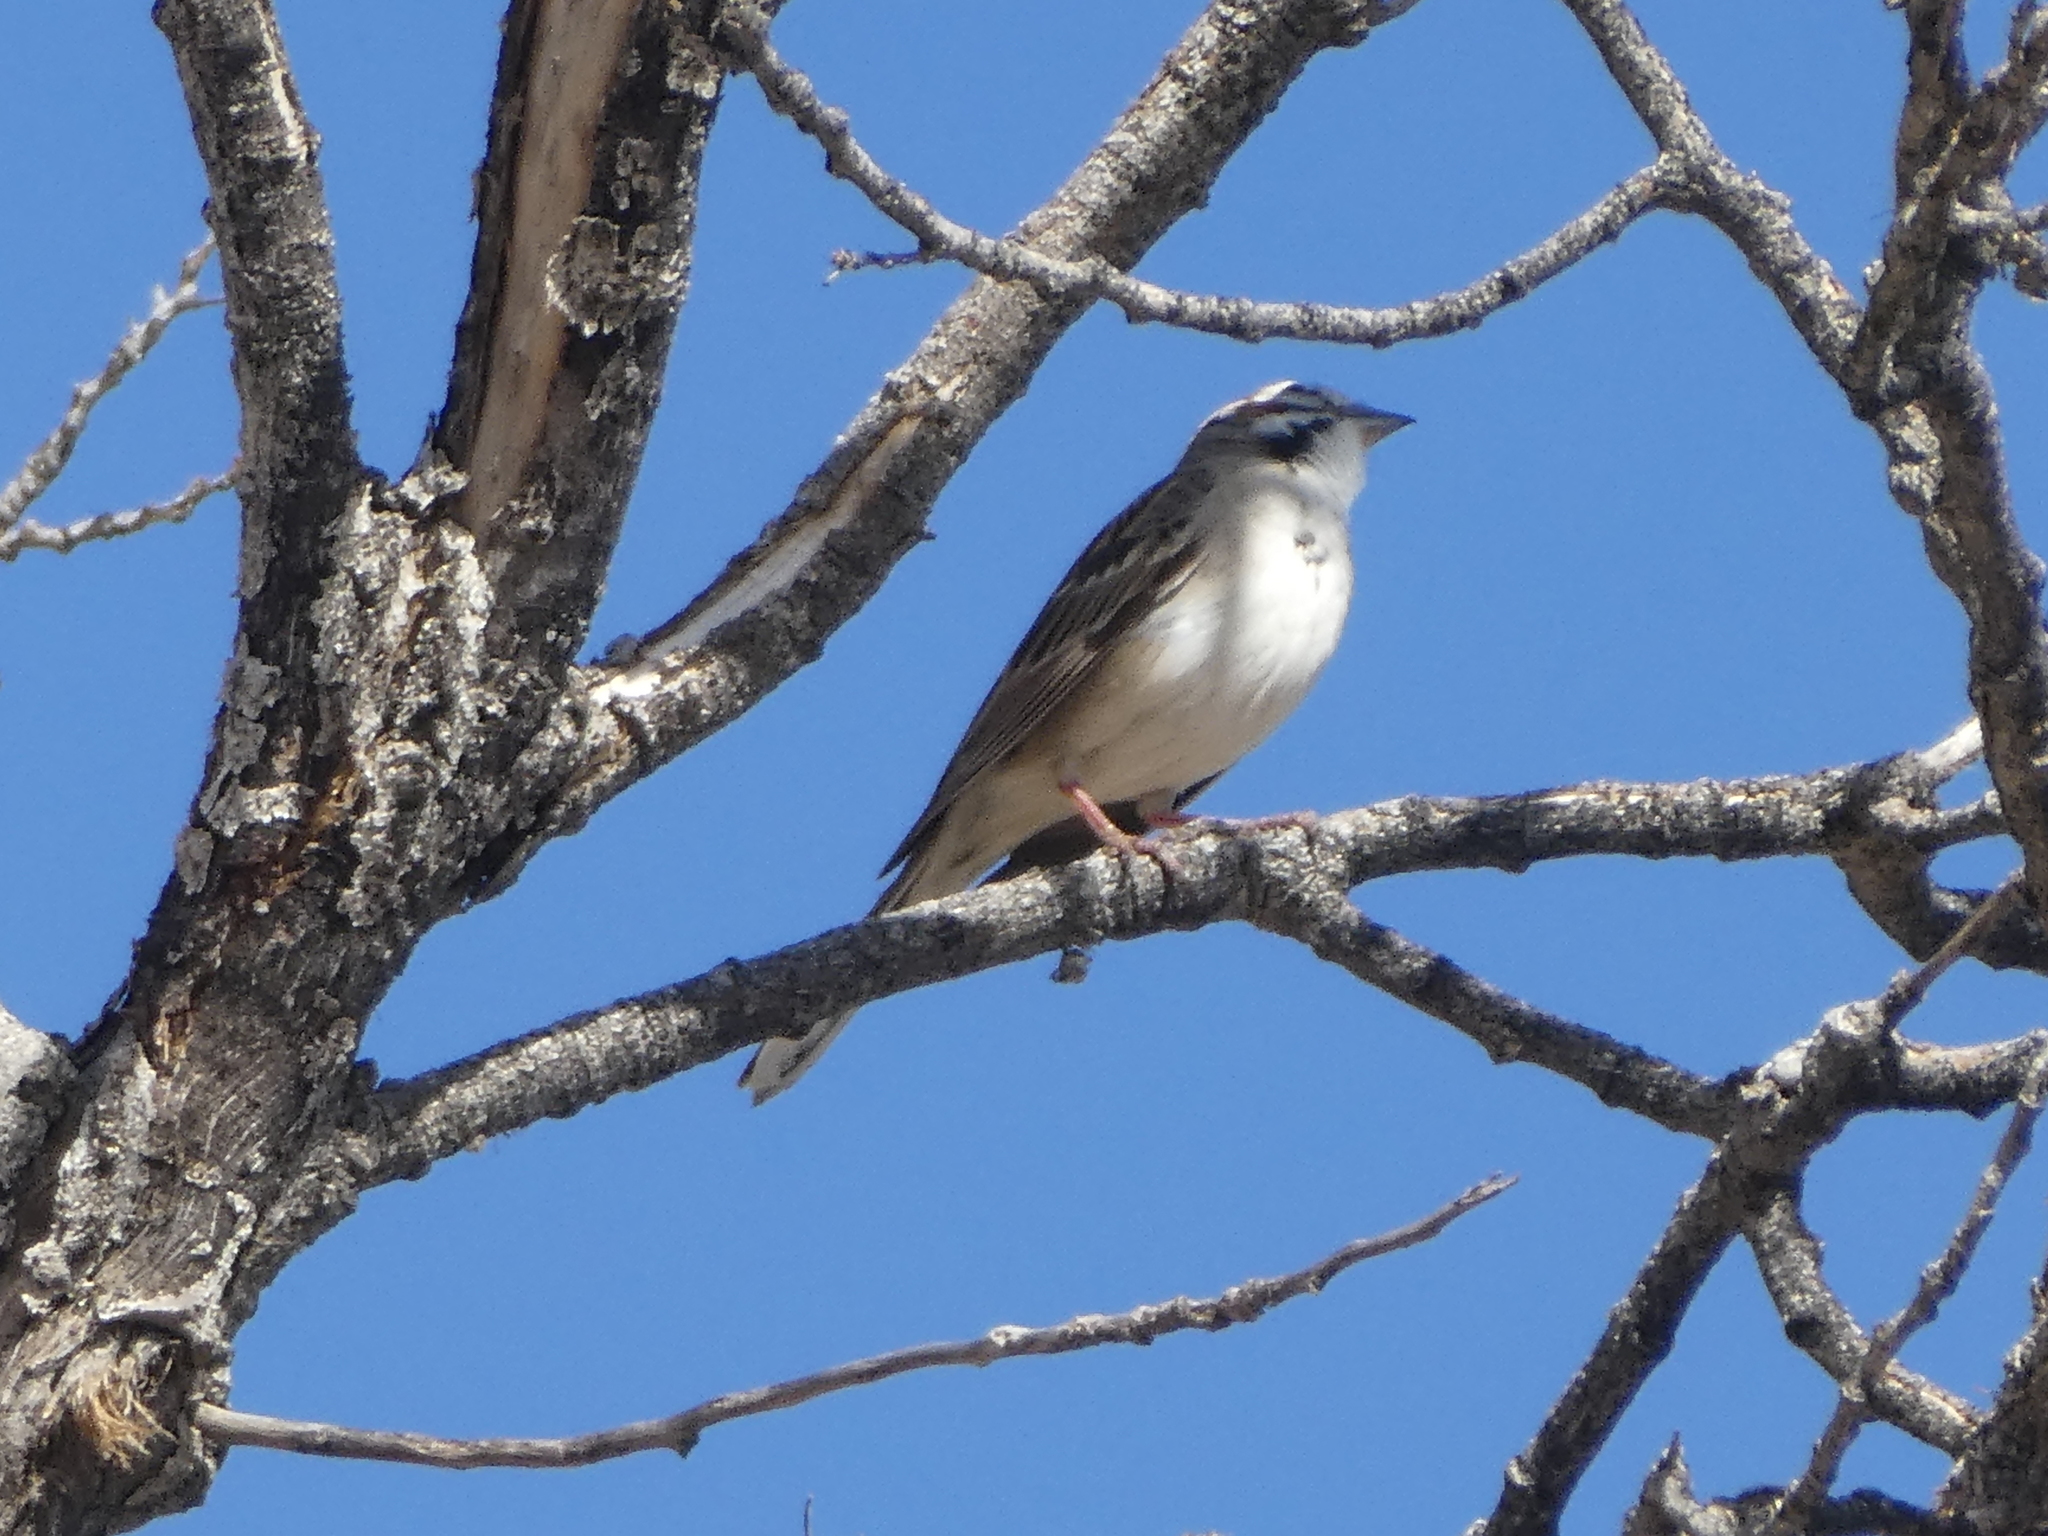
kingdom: Animalia
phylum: Chordata
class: Aves
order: Passeriformes
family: Passerellidae
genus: Chondestes
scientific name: Chondestes grammacus
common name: Lark sparrow
